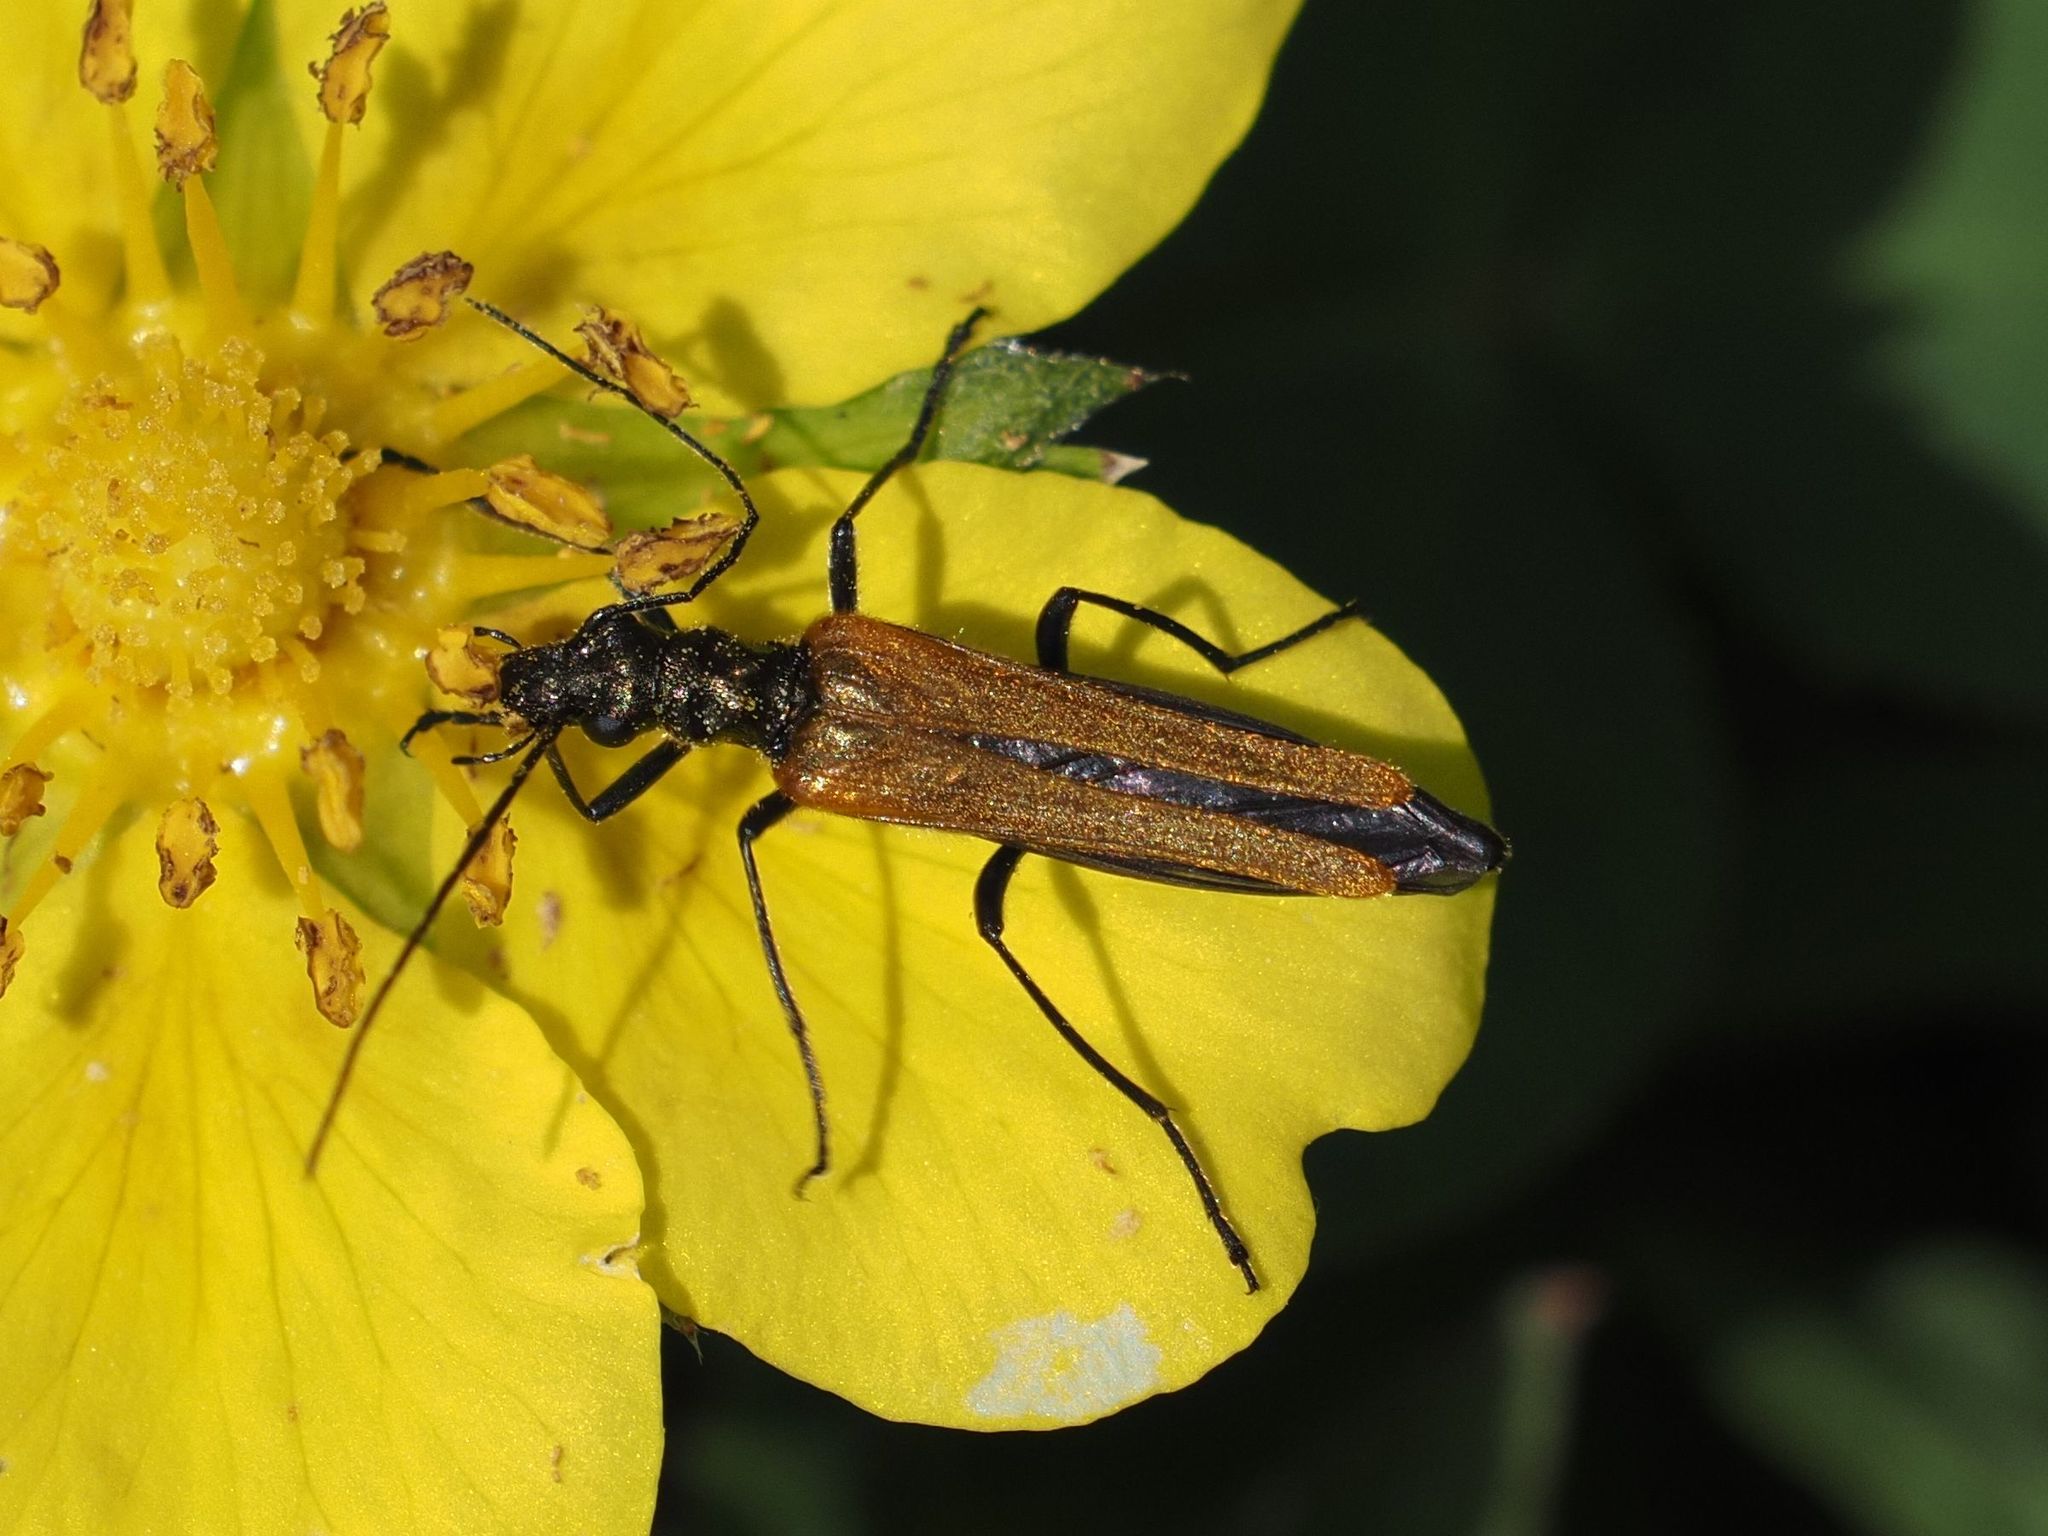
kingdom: Animalia
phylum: Arthropoda
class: Insecta
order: Coleoptera
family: Oedemeridae
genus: Oedemera
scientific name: Oedemera femorata
